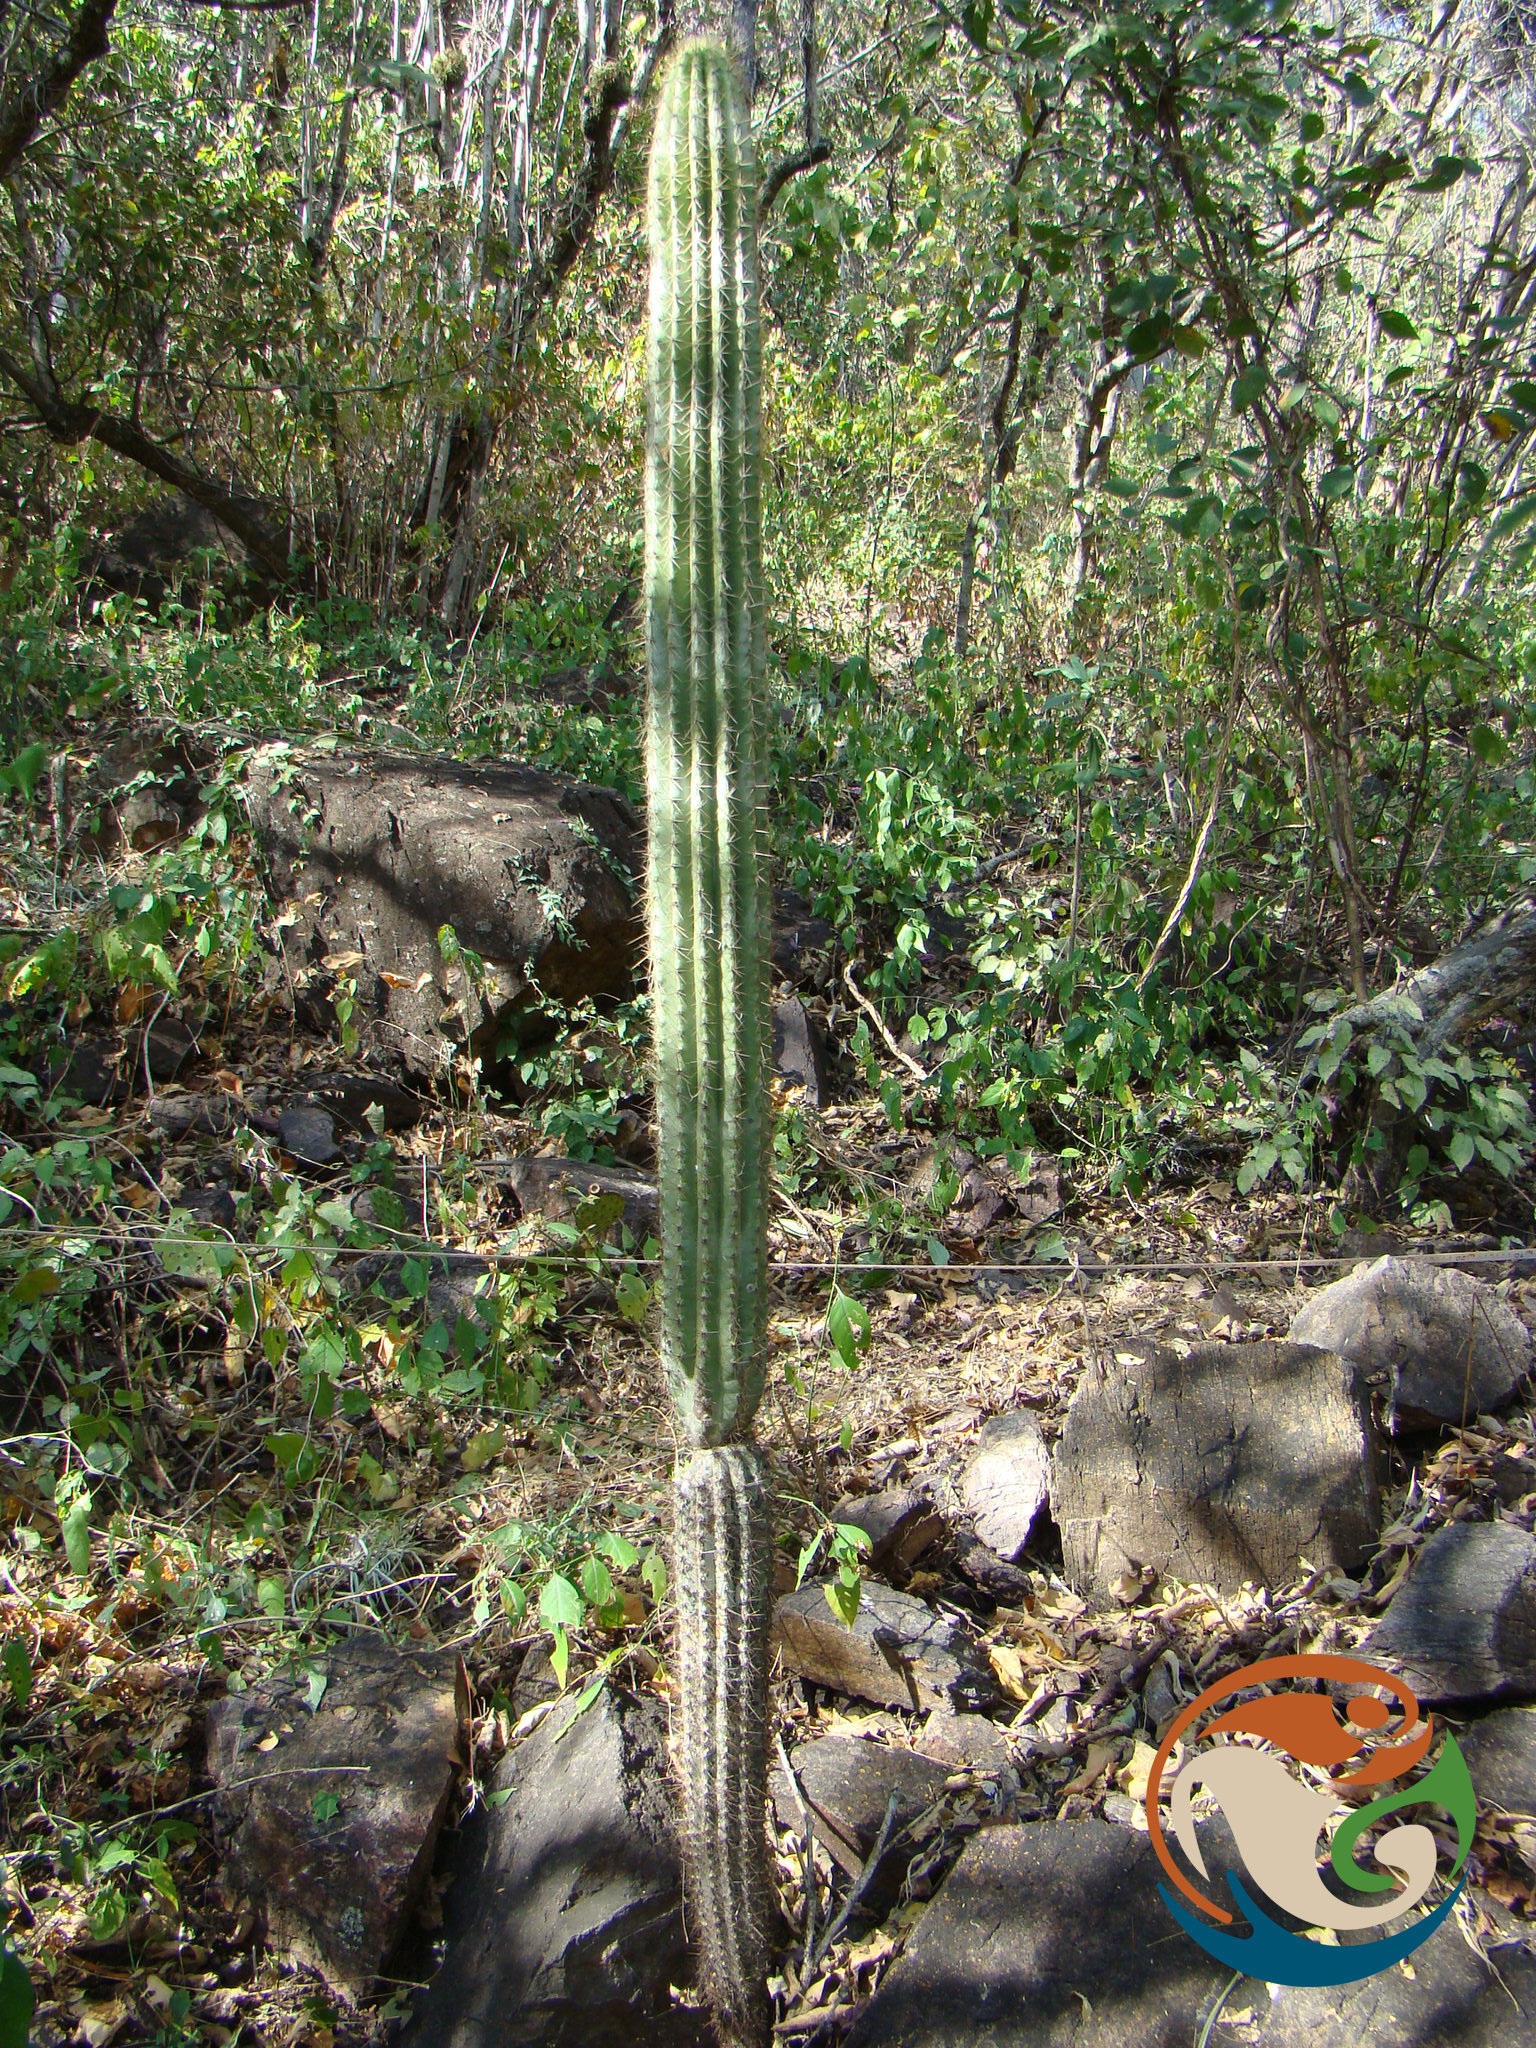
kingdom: Plantae
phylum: Tracheophyta
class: Magnoliopsida
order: Caryophyllales
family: Cactaceae
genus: Cephalocereus
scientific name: Cephalocereus mezcalaensis
